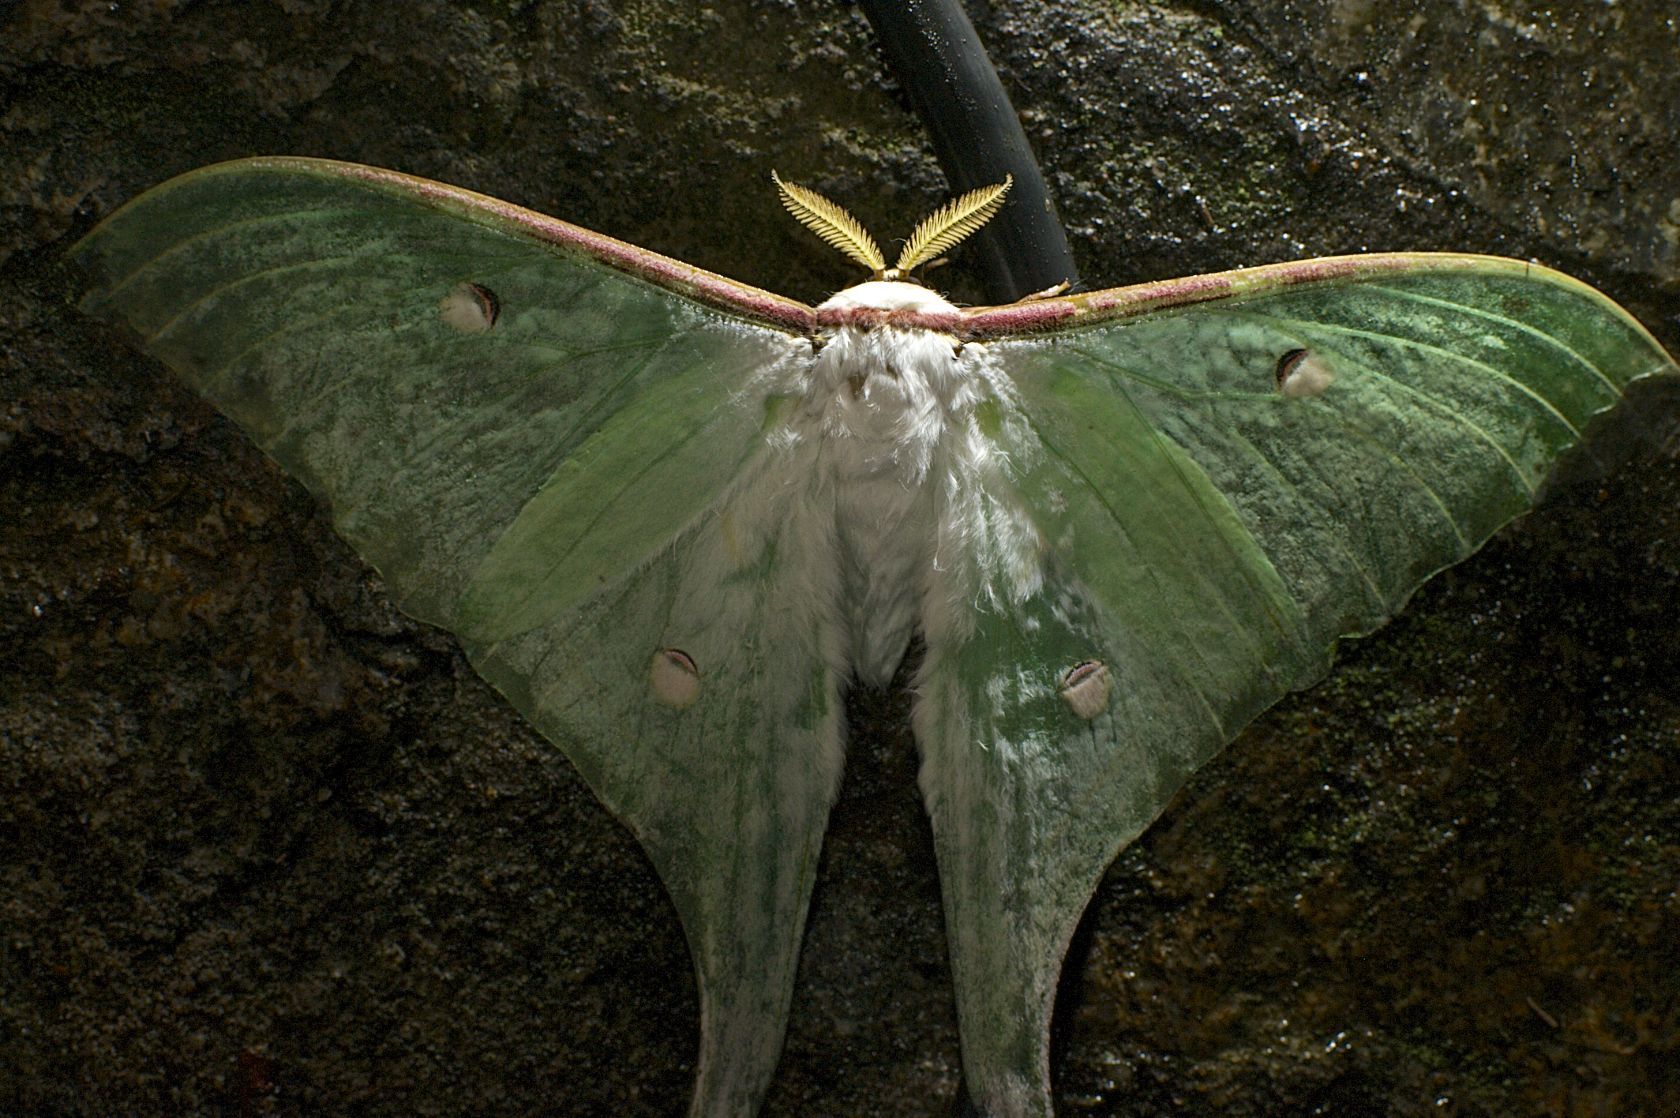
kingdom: Animalia
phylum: Arthropoda
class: Insecta
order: Lepidoptera
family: Saturniidae
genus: Actias
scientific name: Actias ningpoana
